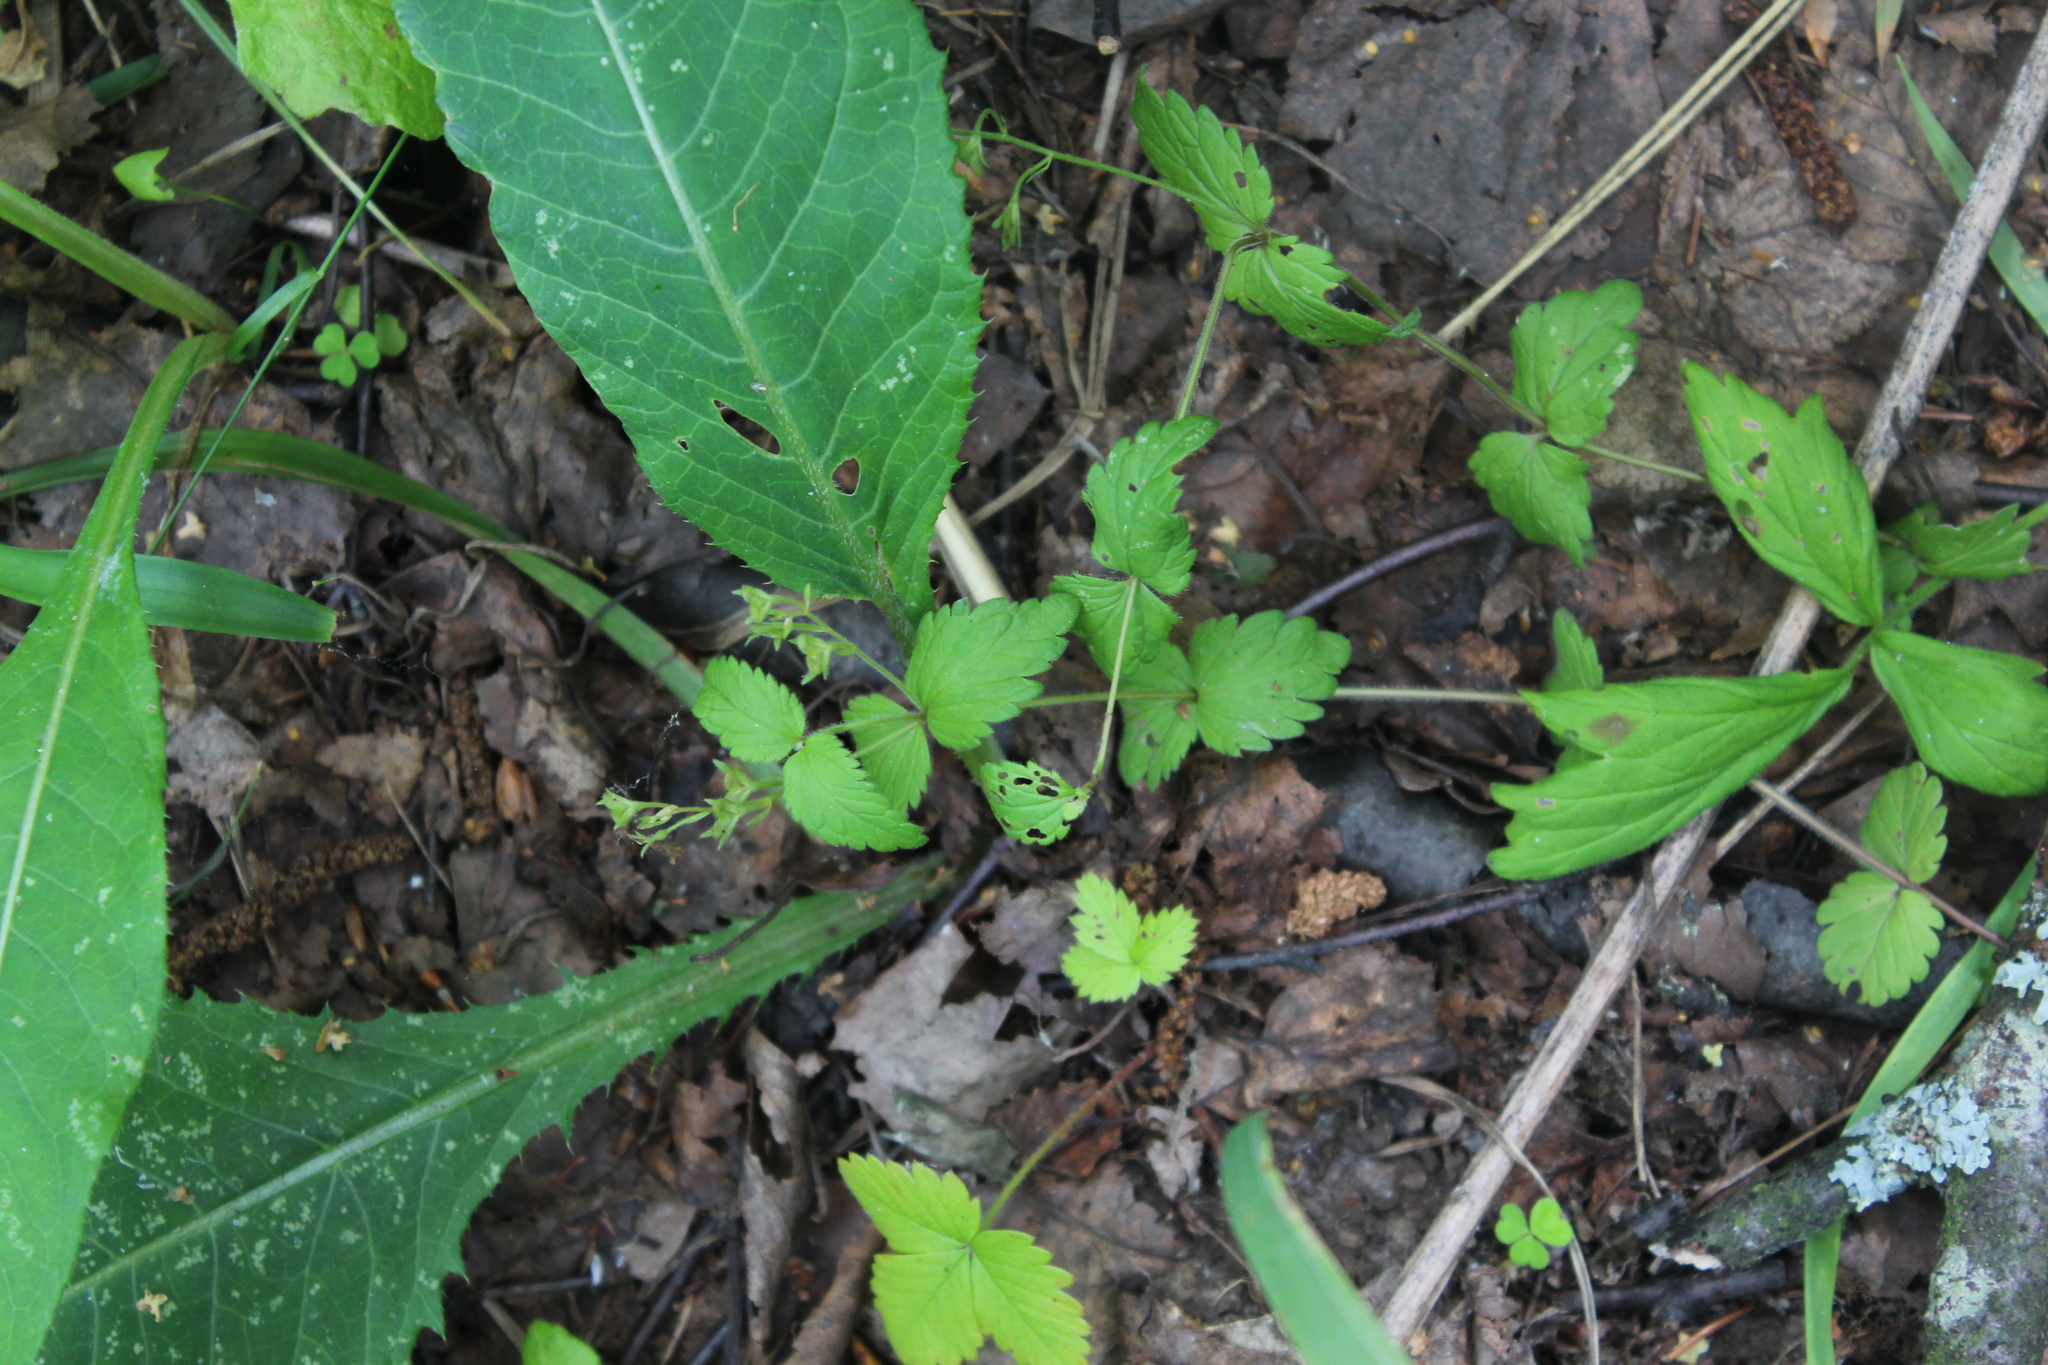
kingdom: Plantae
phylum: Tracheophyta
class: Magnoliopsida
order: Lamiales
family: Plantaginaceae
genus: Veronica
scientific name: Veronica chamaedrys
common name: Germander speedwell
